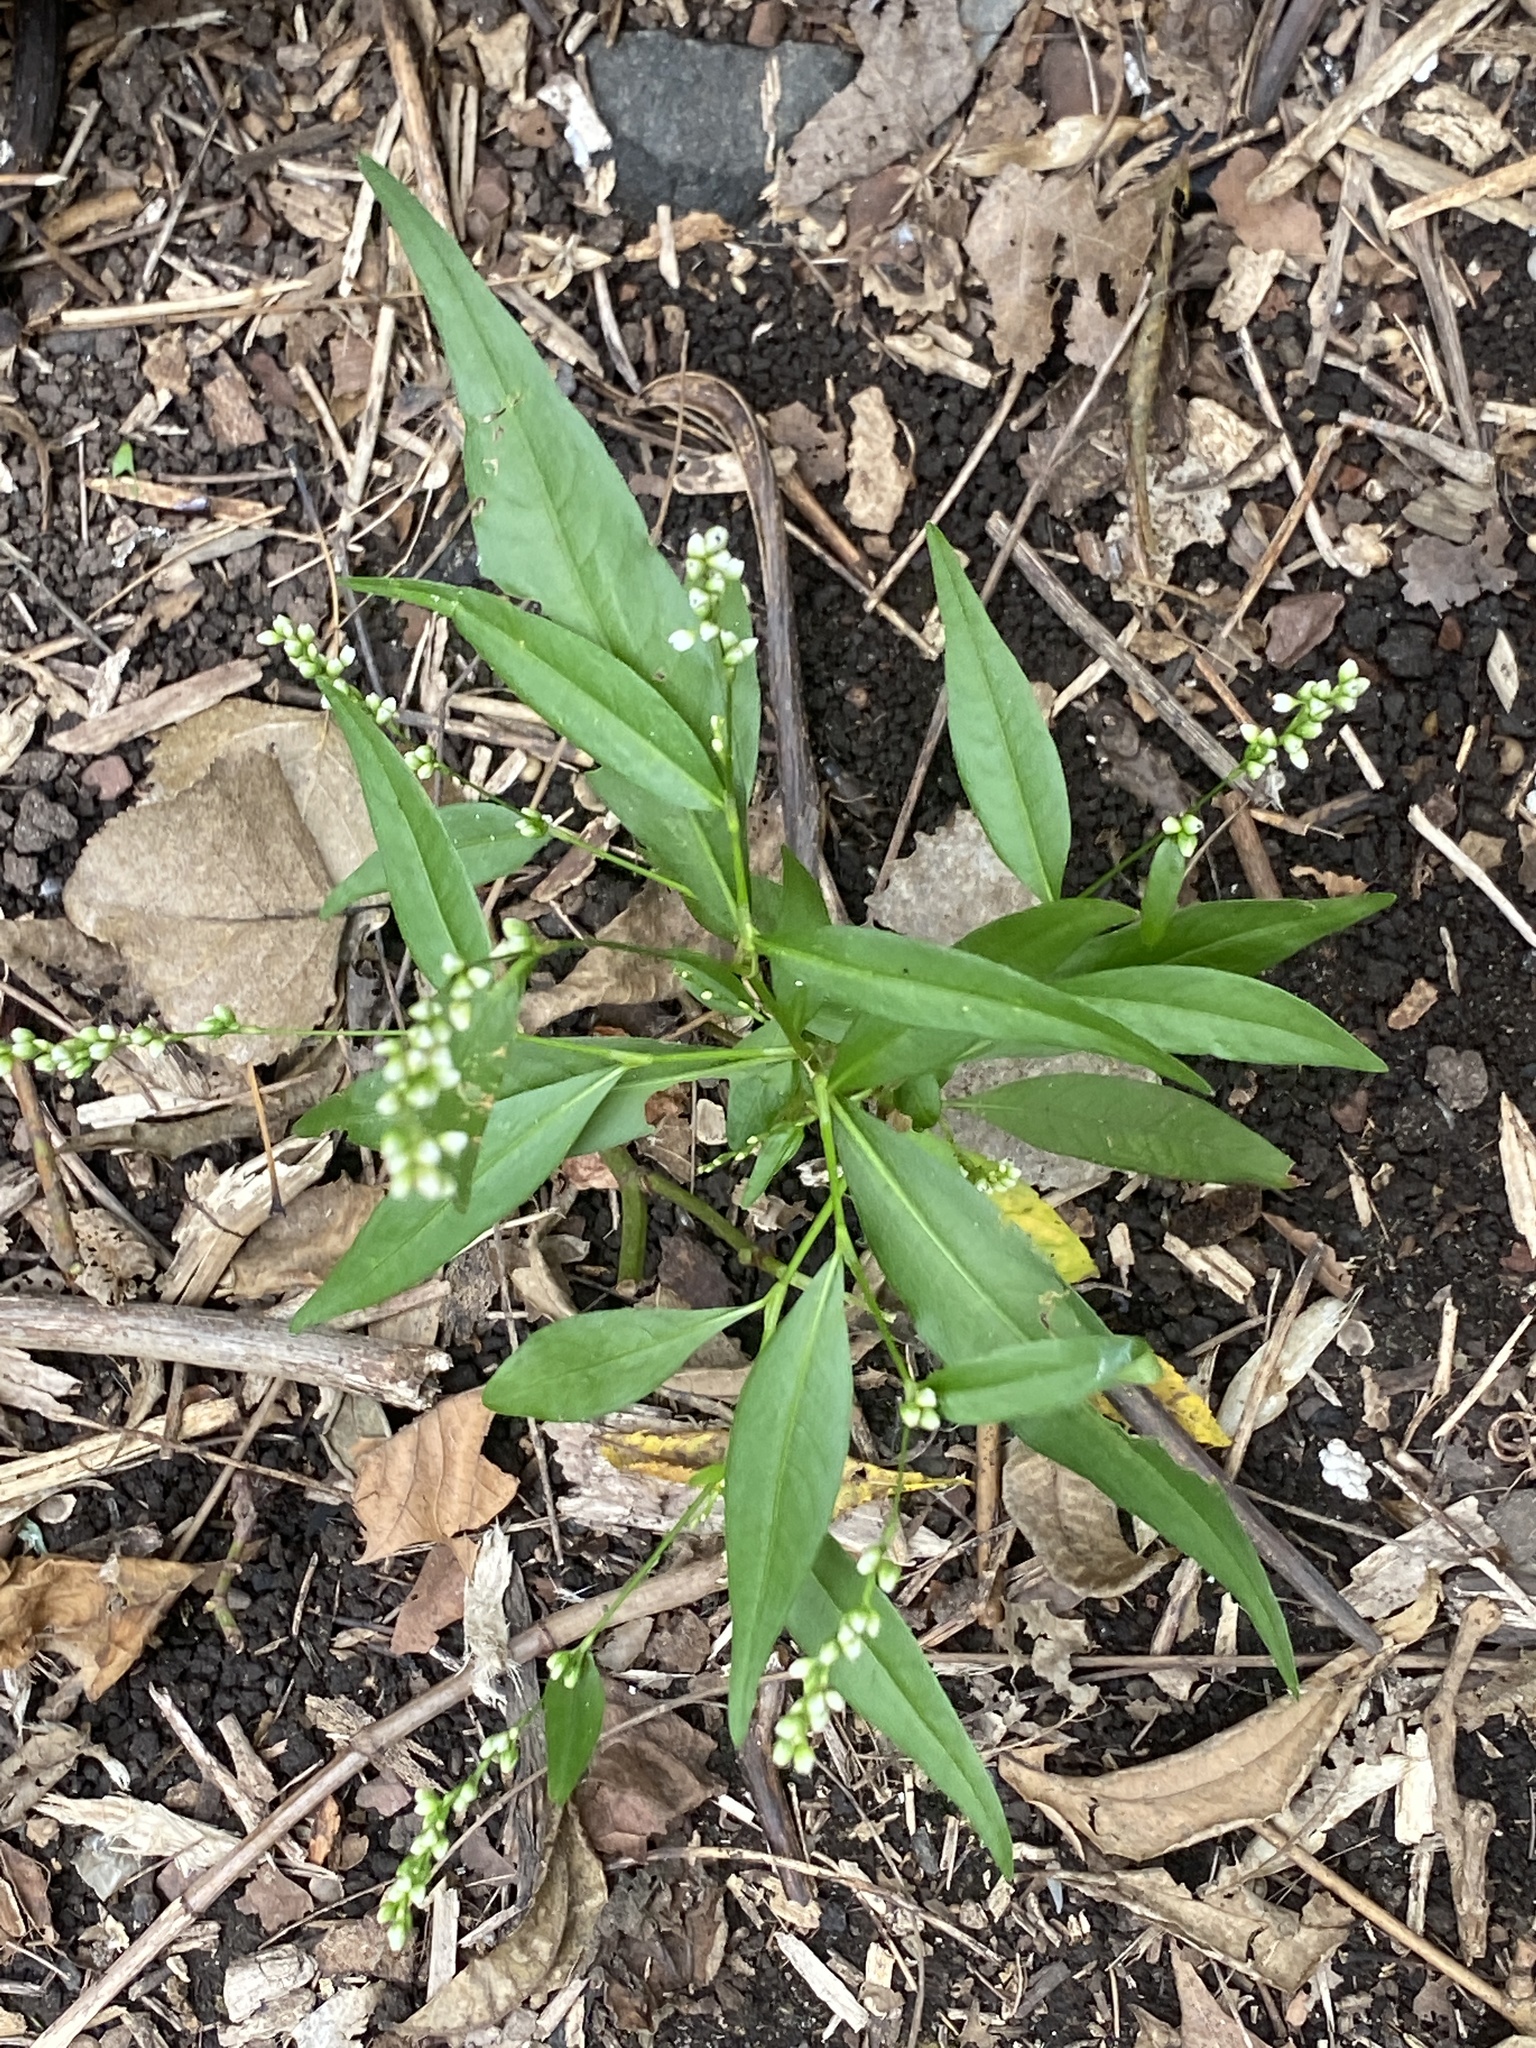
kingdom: Plantae
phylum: Tracheophyta
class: Magnoliopsida
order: Caryophyllales
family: Polygonaceae
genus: Persicaria
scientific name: Persicaria punctata
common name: Dotted smartweed
